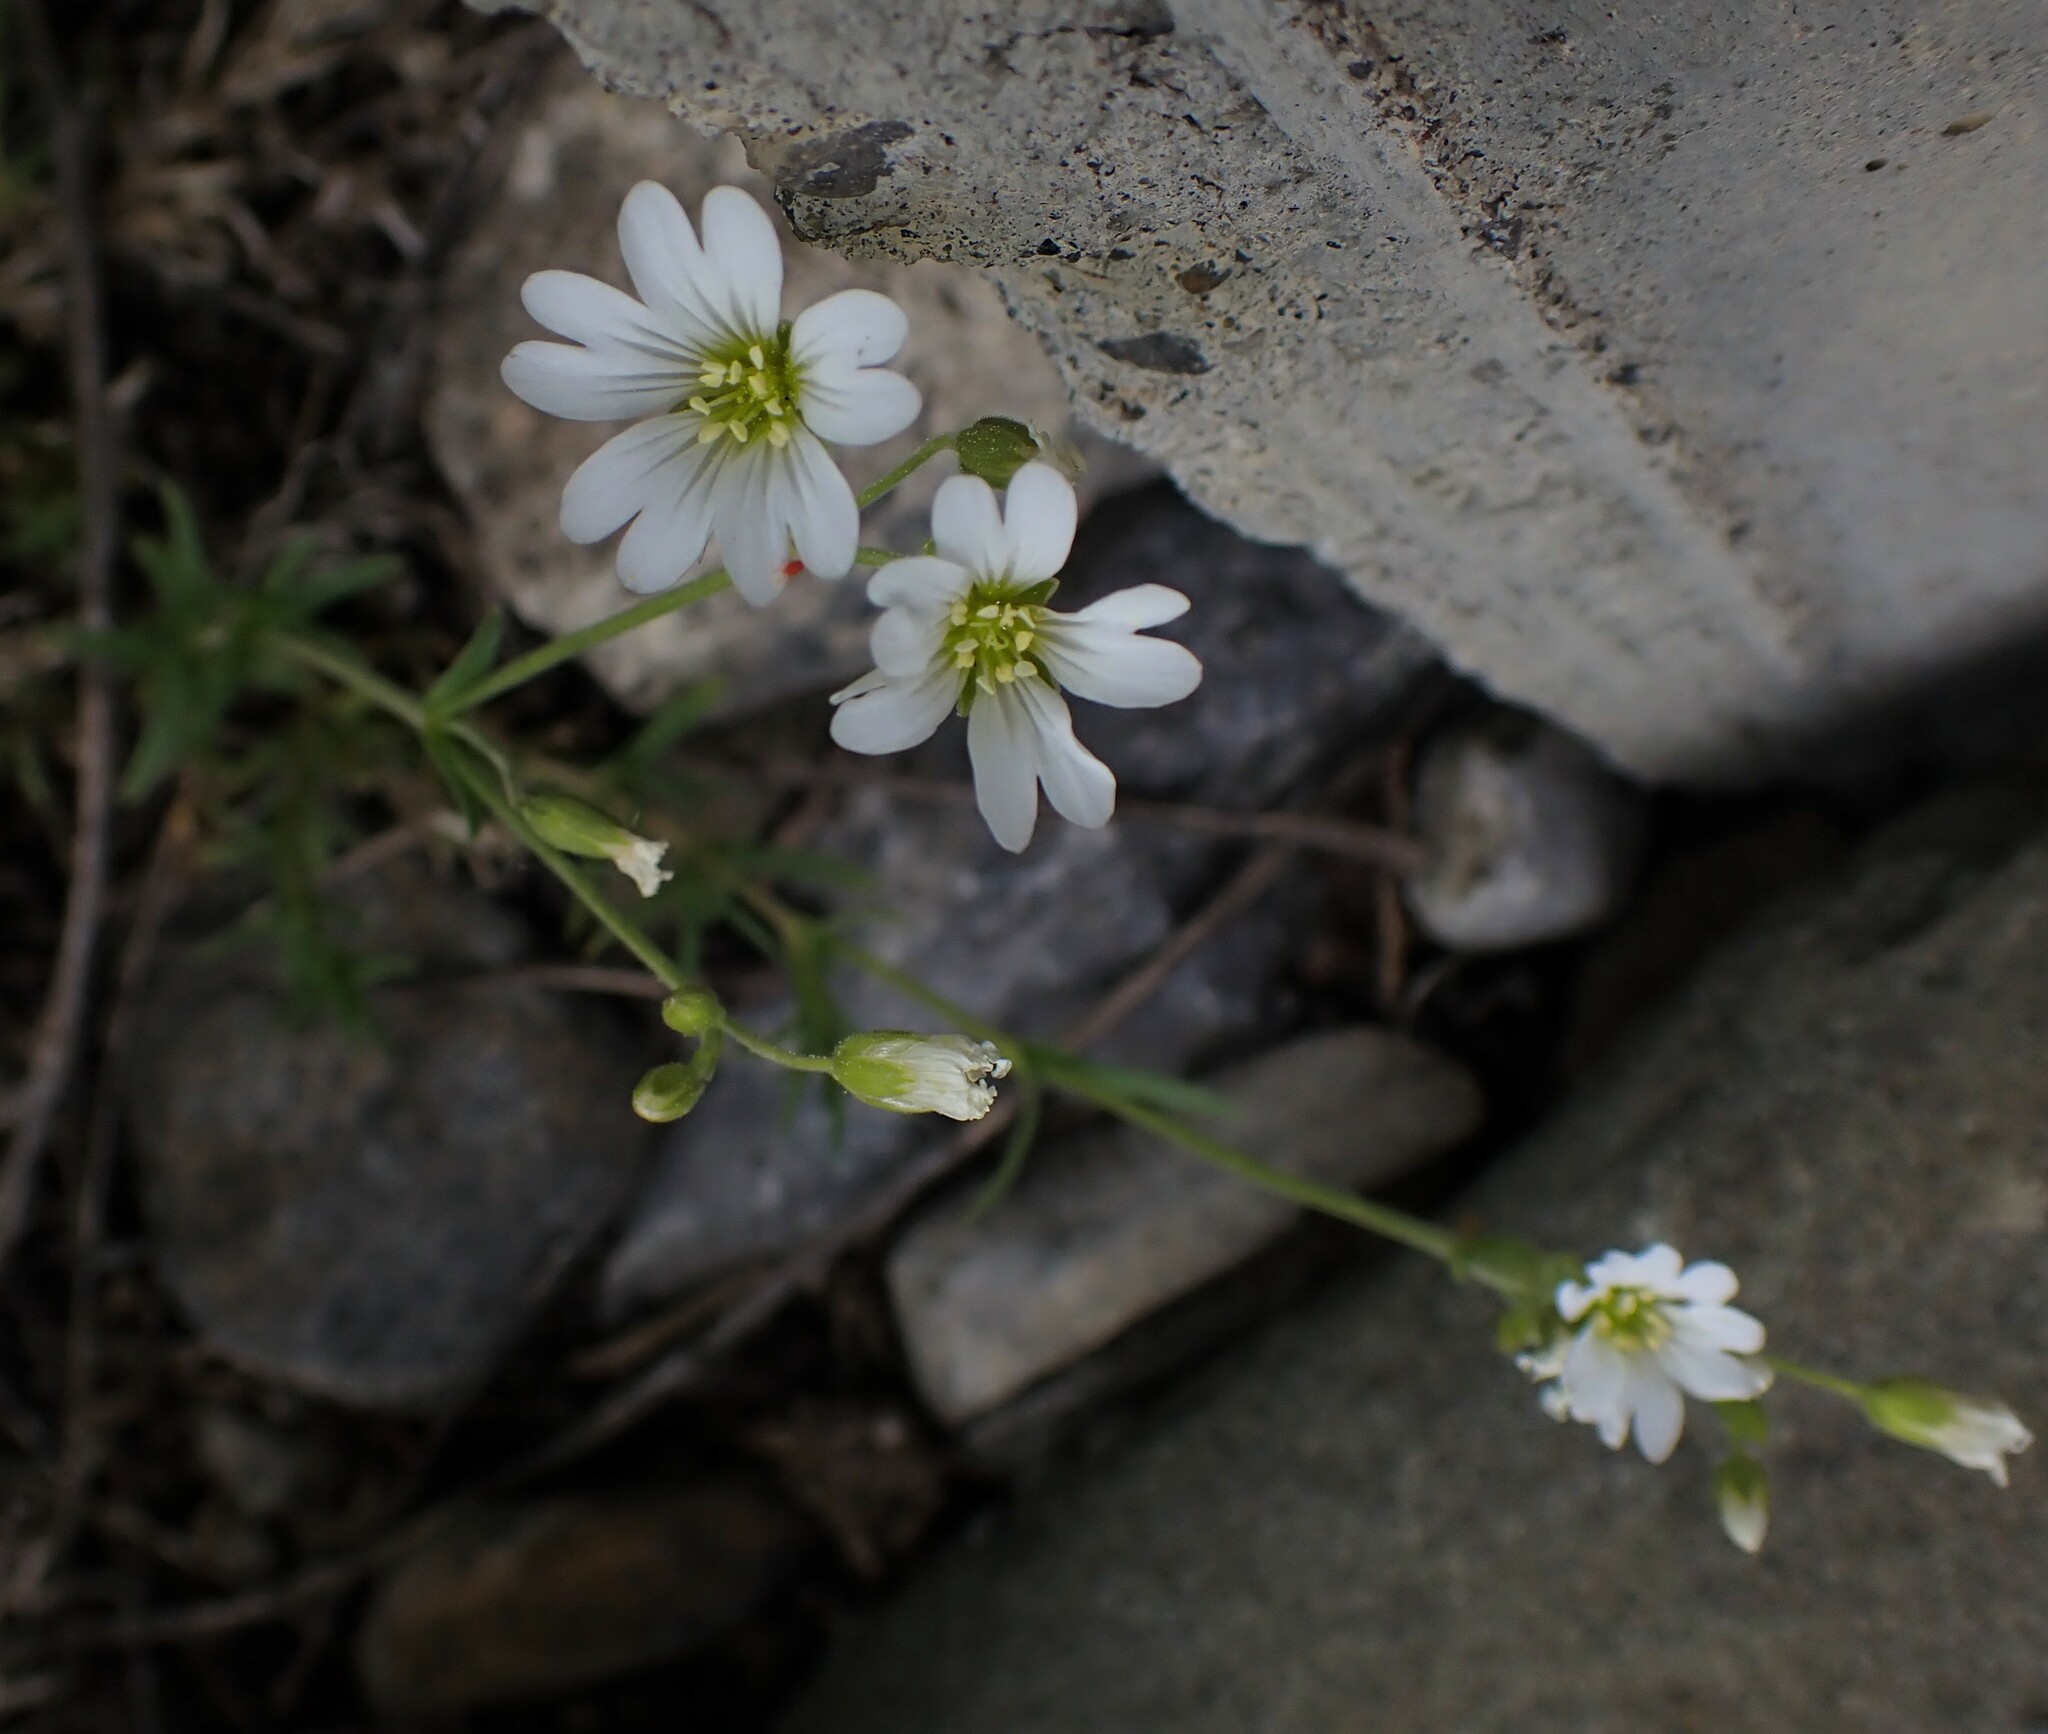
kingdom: Plantae
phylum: Tracheophyta
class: Magnoliopsida
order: Caryophyllales
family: Caryophyllaceae
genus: Cerastium
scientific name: Cerastium arvense
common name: Field mouse-ear
